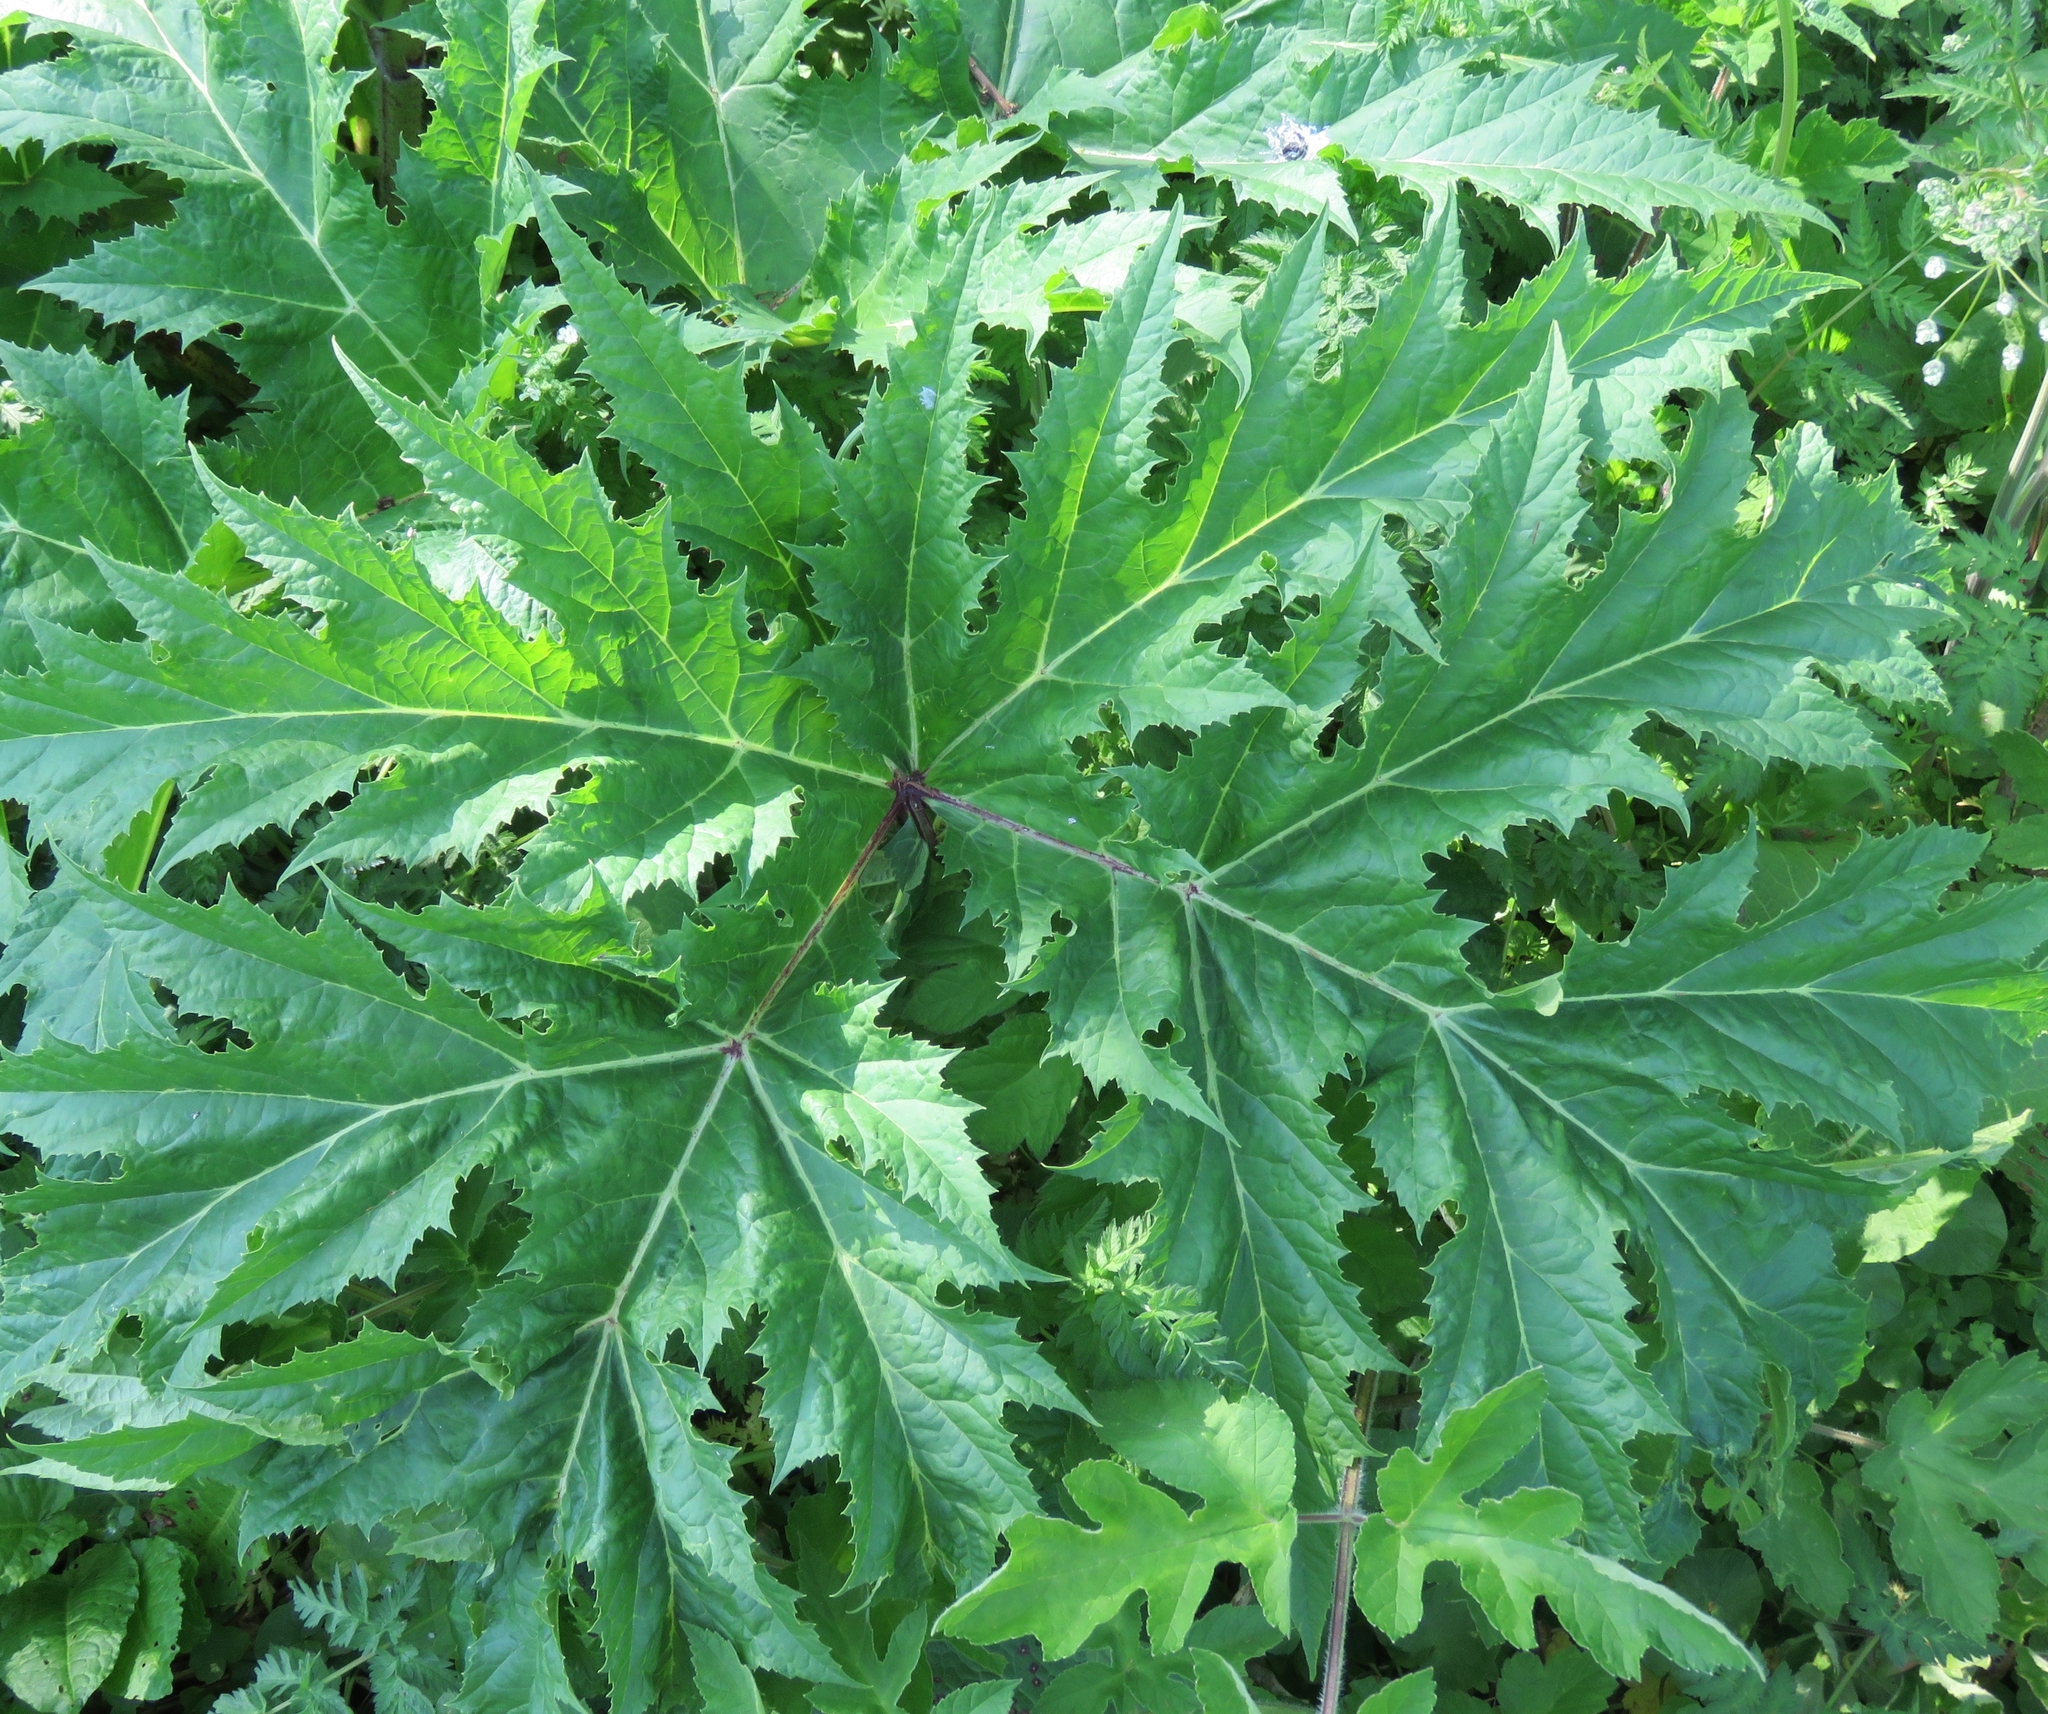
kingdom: Plantae
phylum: Tracheophyta
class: Magnoliopsida
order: Apiales
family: Apiaceae
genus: Heracleum
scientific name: Heracleum mantegazzianum
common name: Giant hogweed
